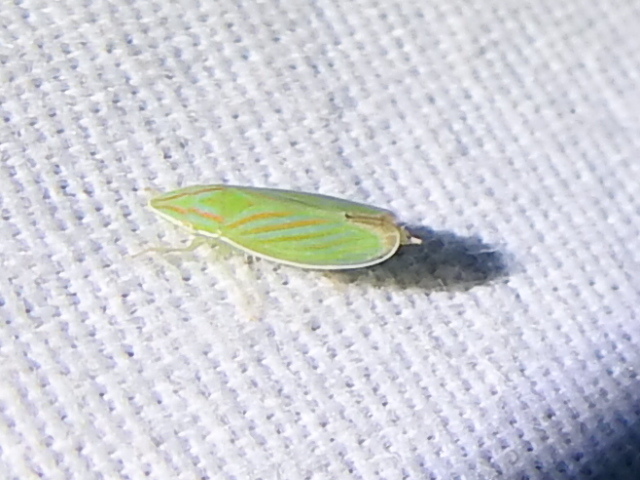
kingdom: Animalia
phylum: Arthropoda
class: Insecta
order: Hemiptera
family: Cicadellidae
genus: Spangbergiella
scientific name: Spangbergiella viridis
